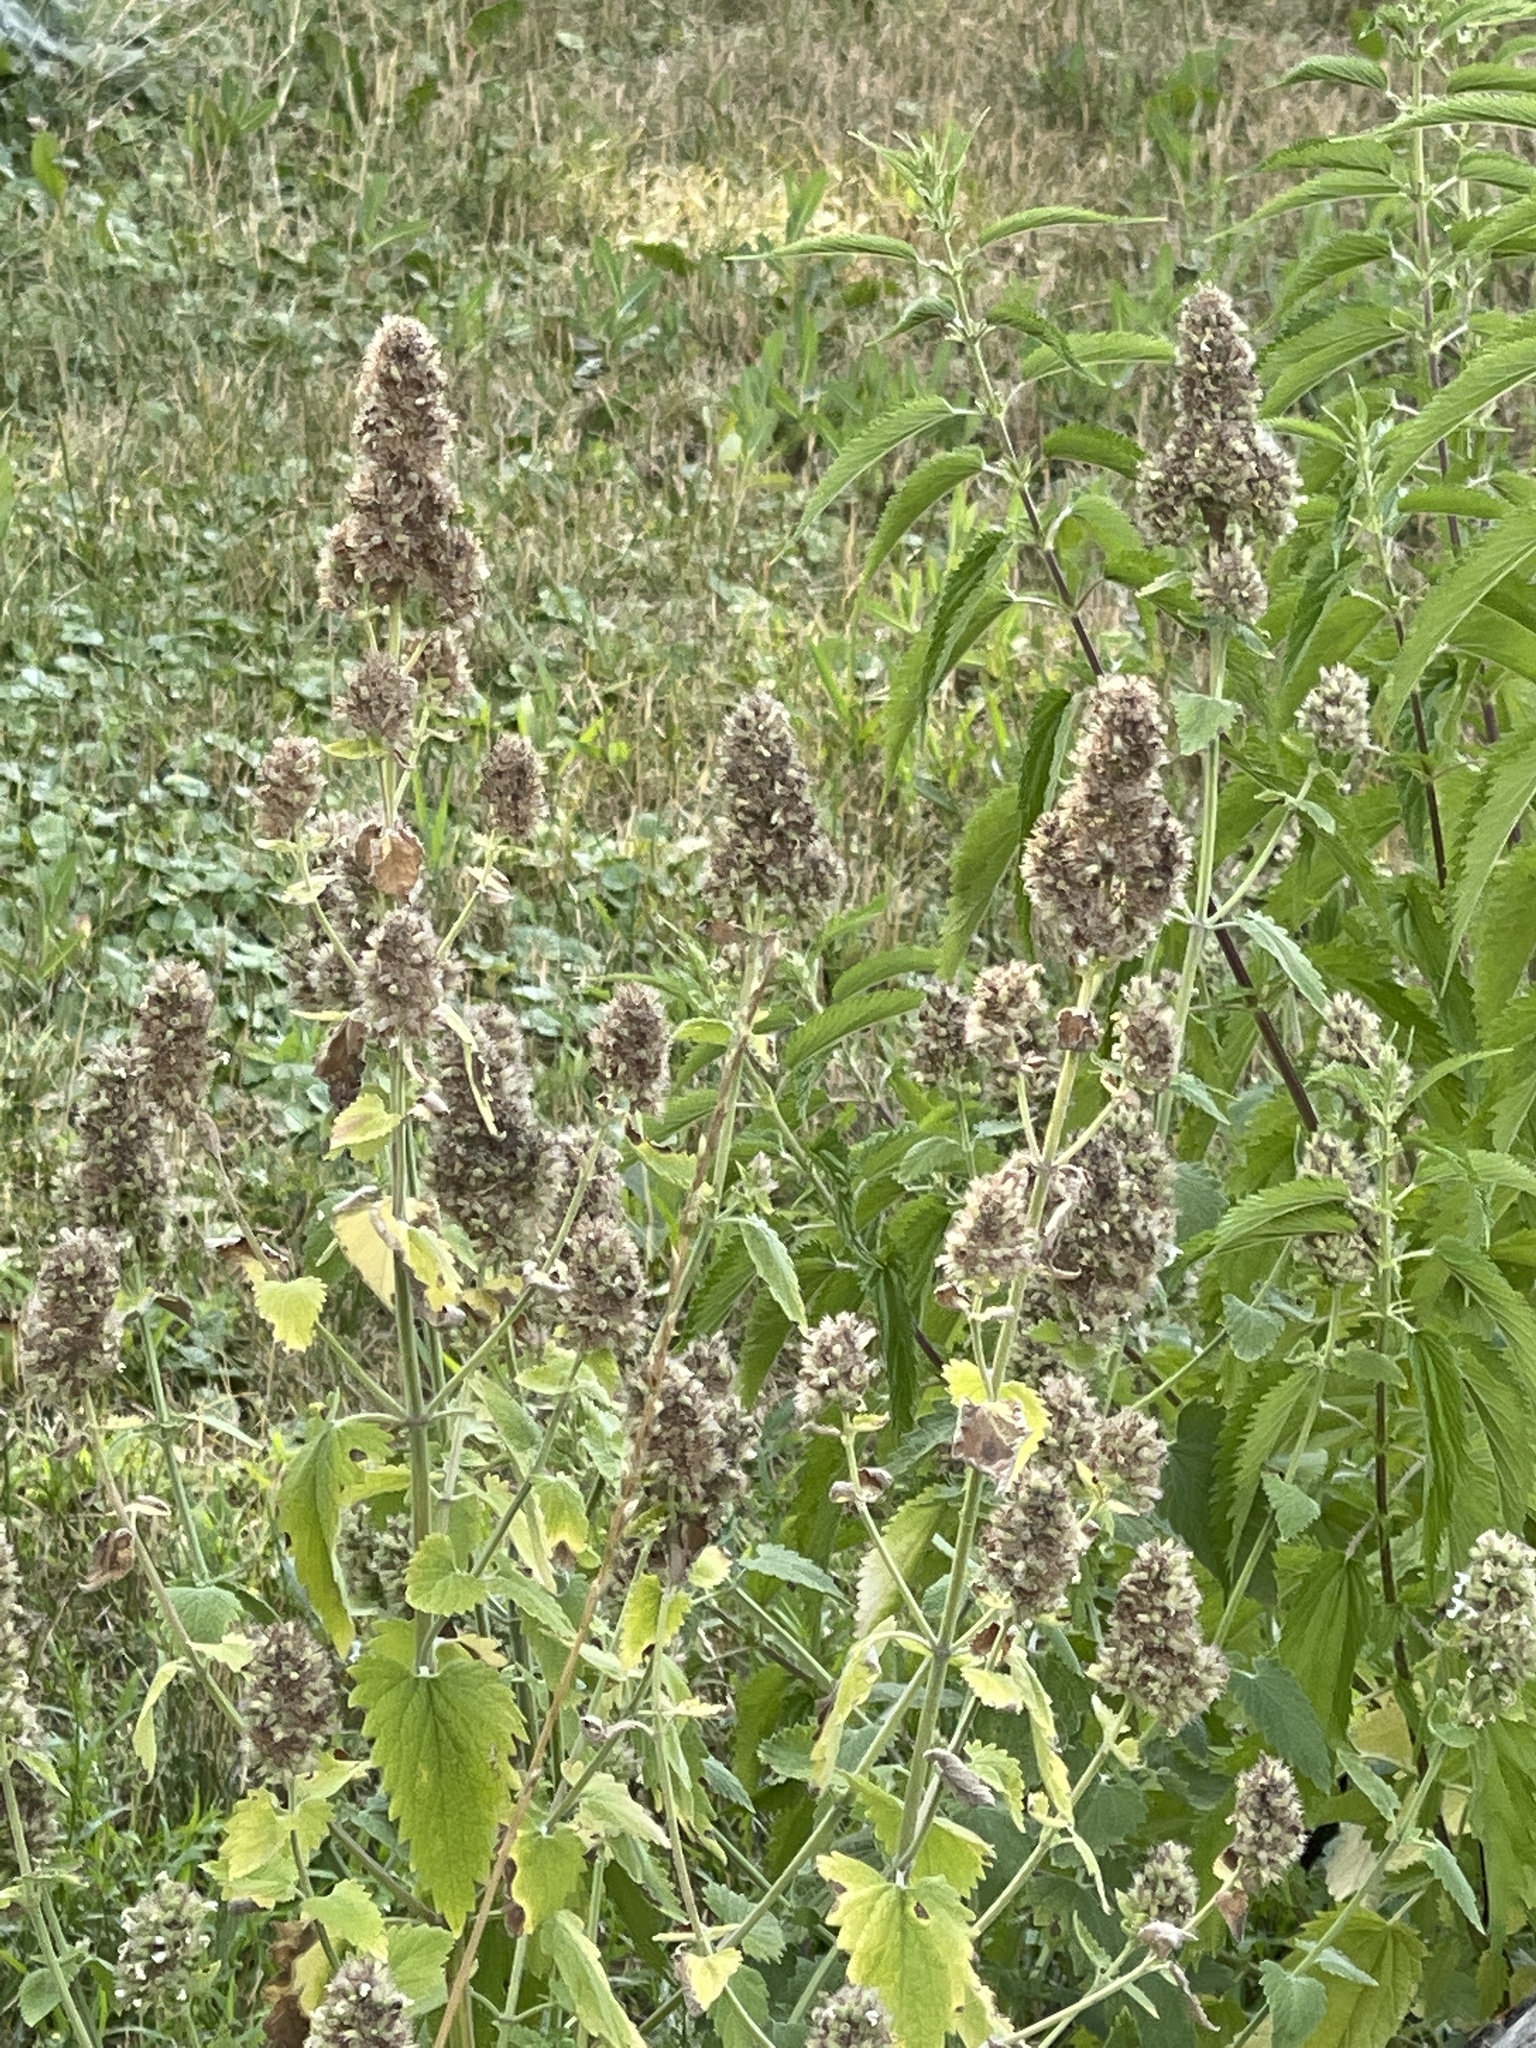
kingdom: Plantae
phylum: Tracheophyta
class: Magnoliopsida
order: Lamiales
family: Lamiaceae
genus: Nepeta
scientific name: Nepeta cataria
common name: Catnip
